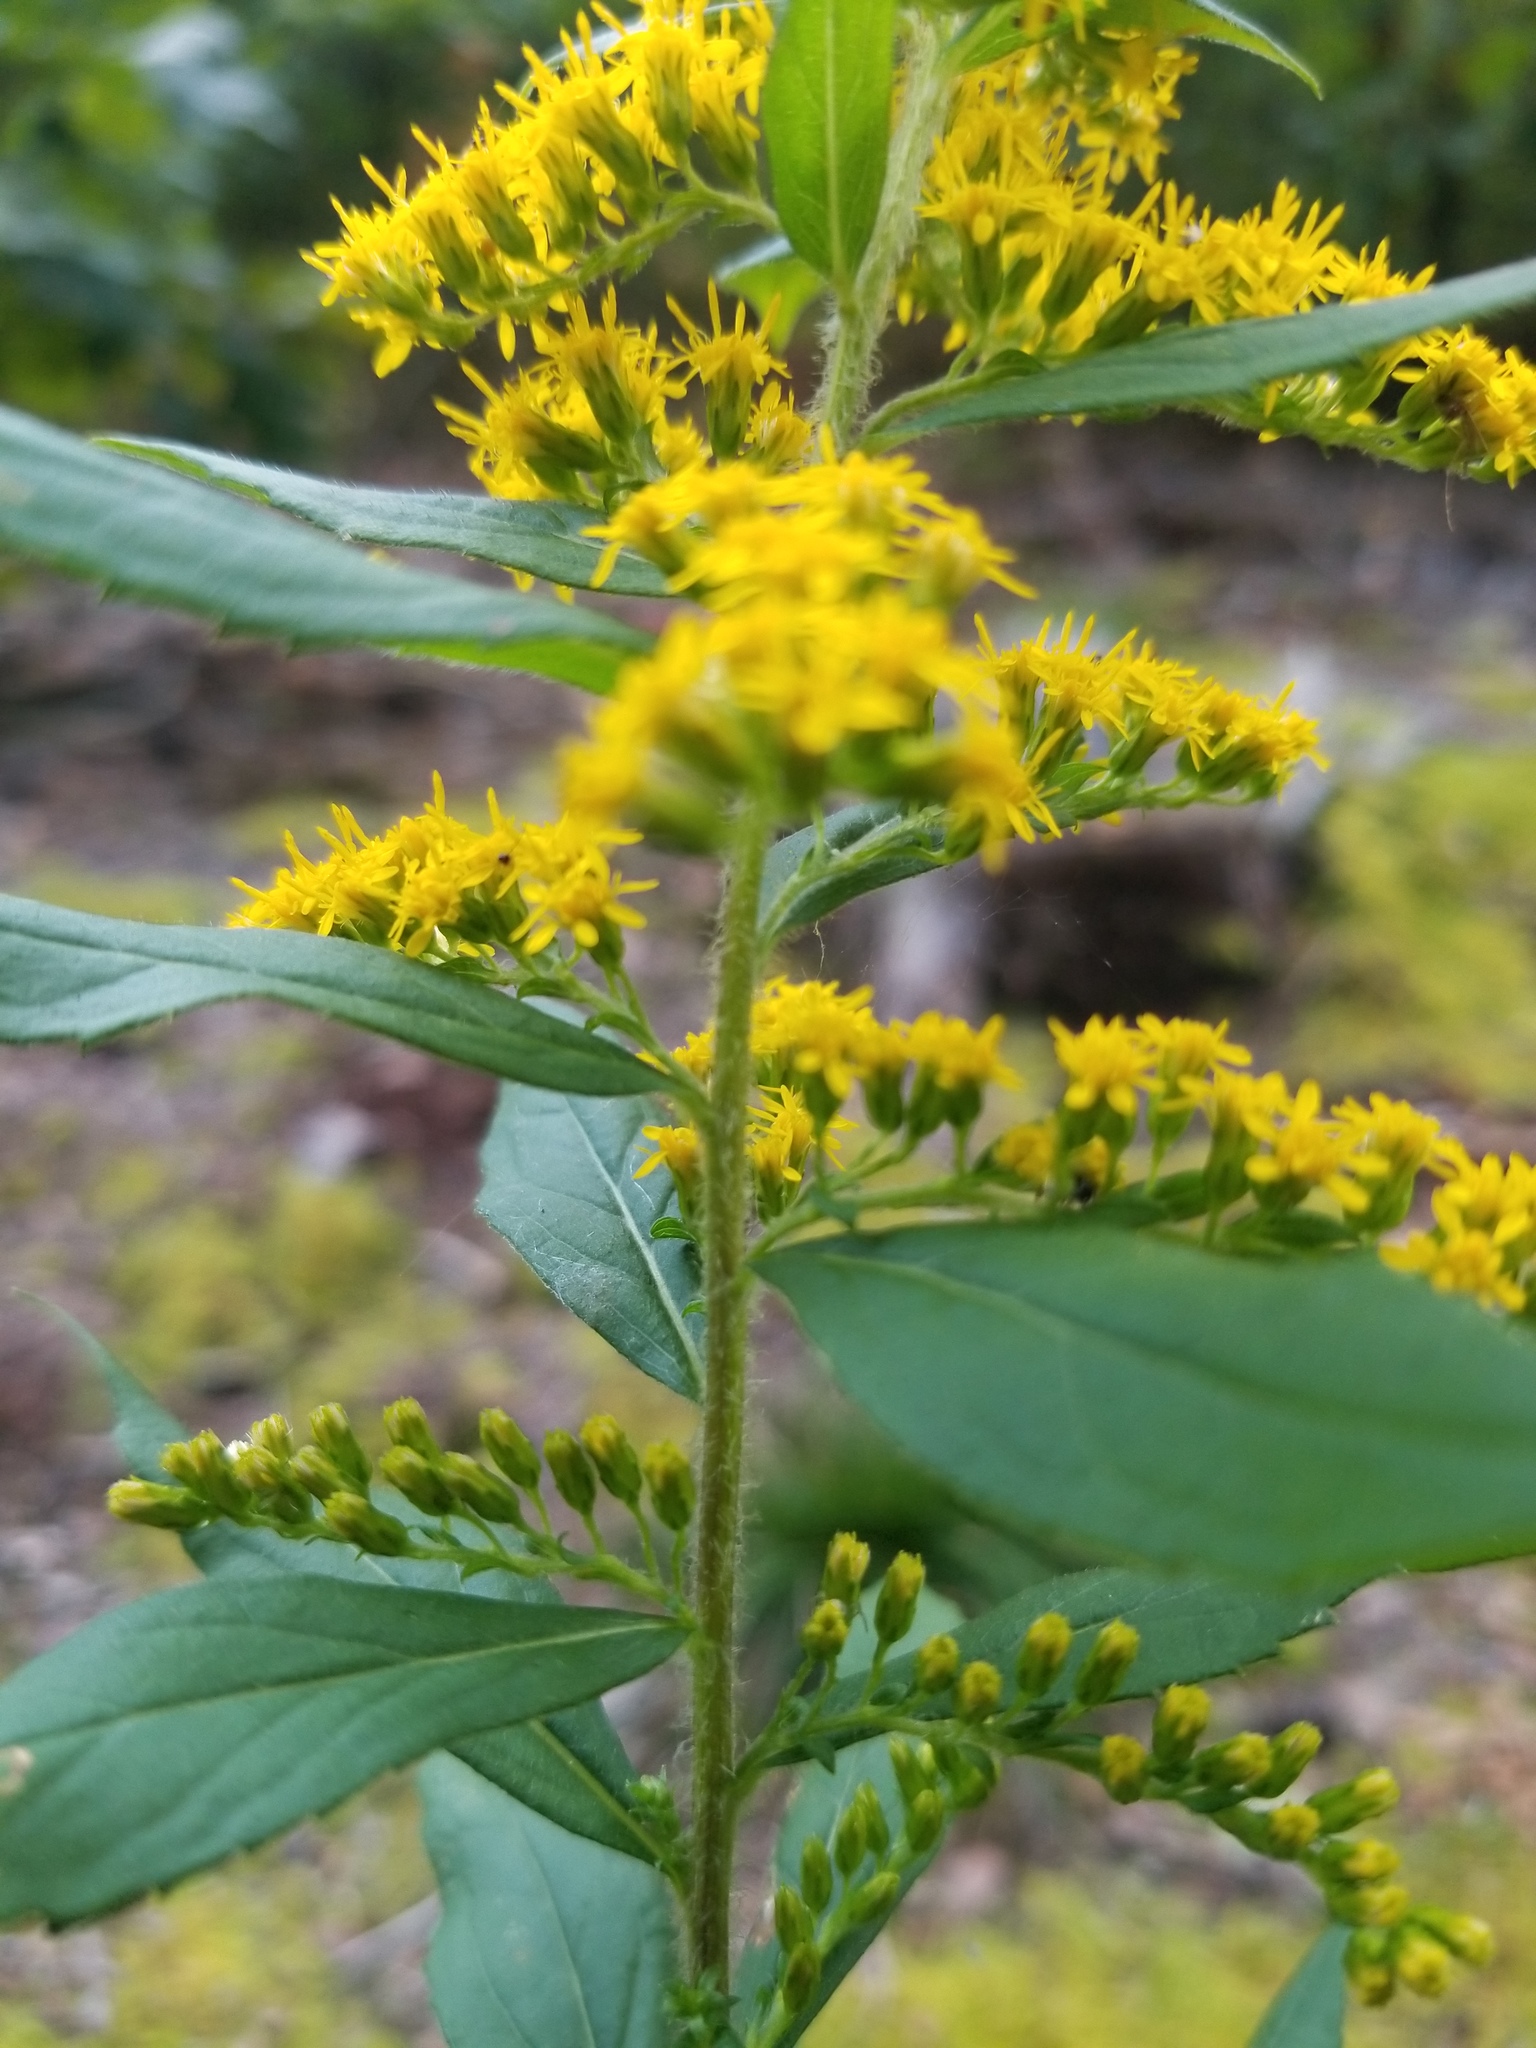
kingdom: Plantae
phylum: Tracheophyta
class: Magnoliopsida
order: Asterales
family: Asteraceae
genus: Solidago
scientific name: Solidago rugosa
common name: Rough-stemmed goldenrod
